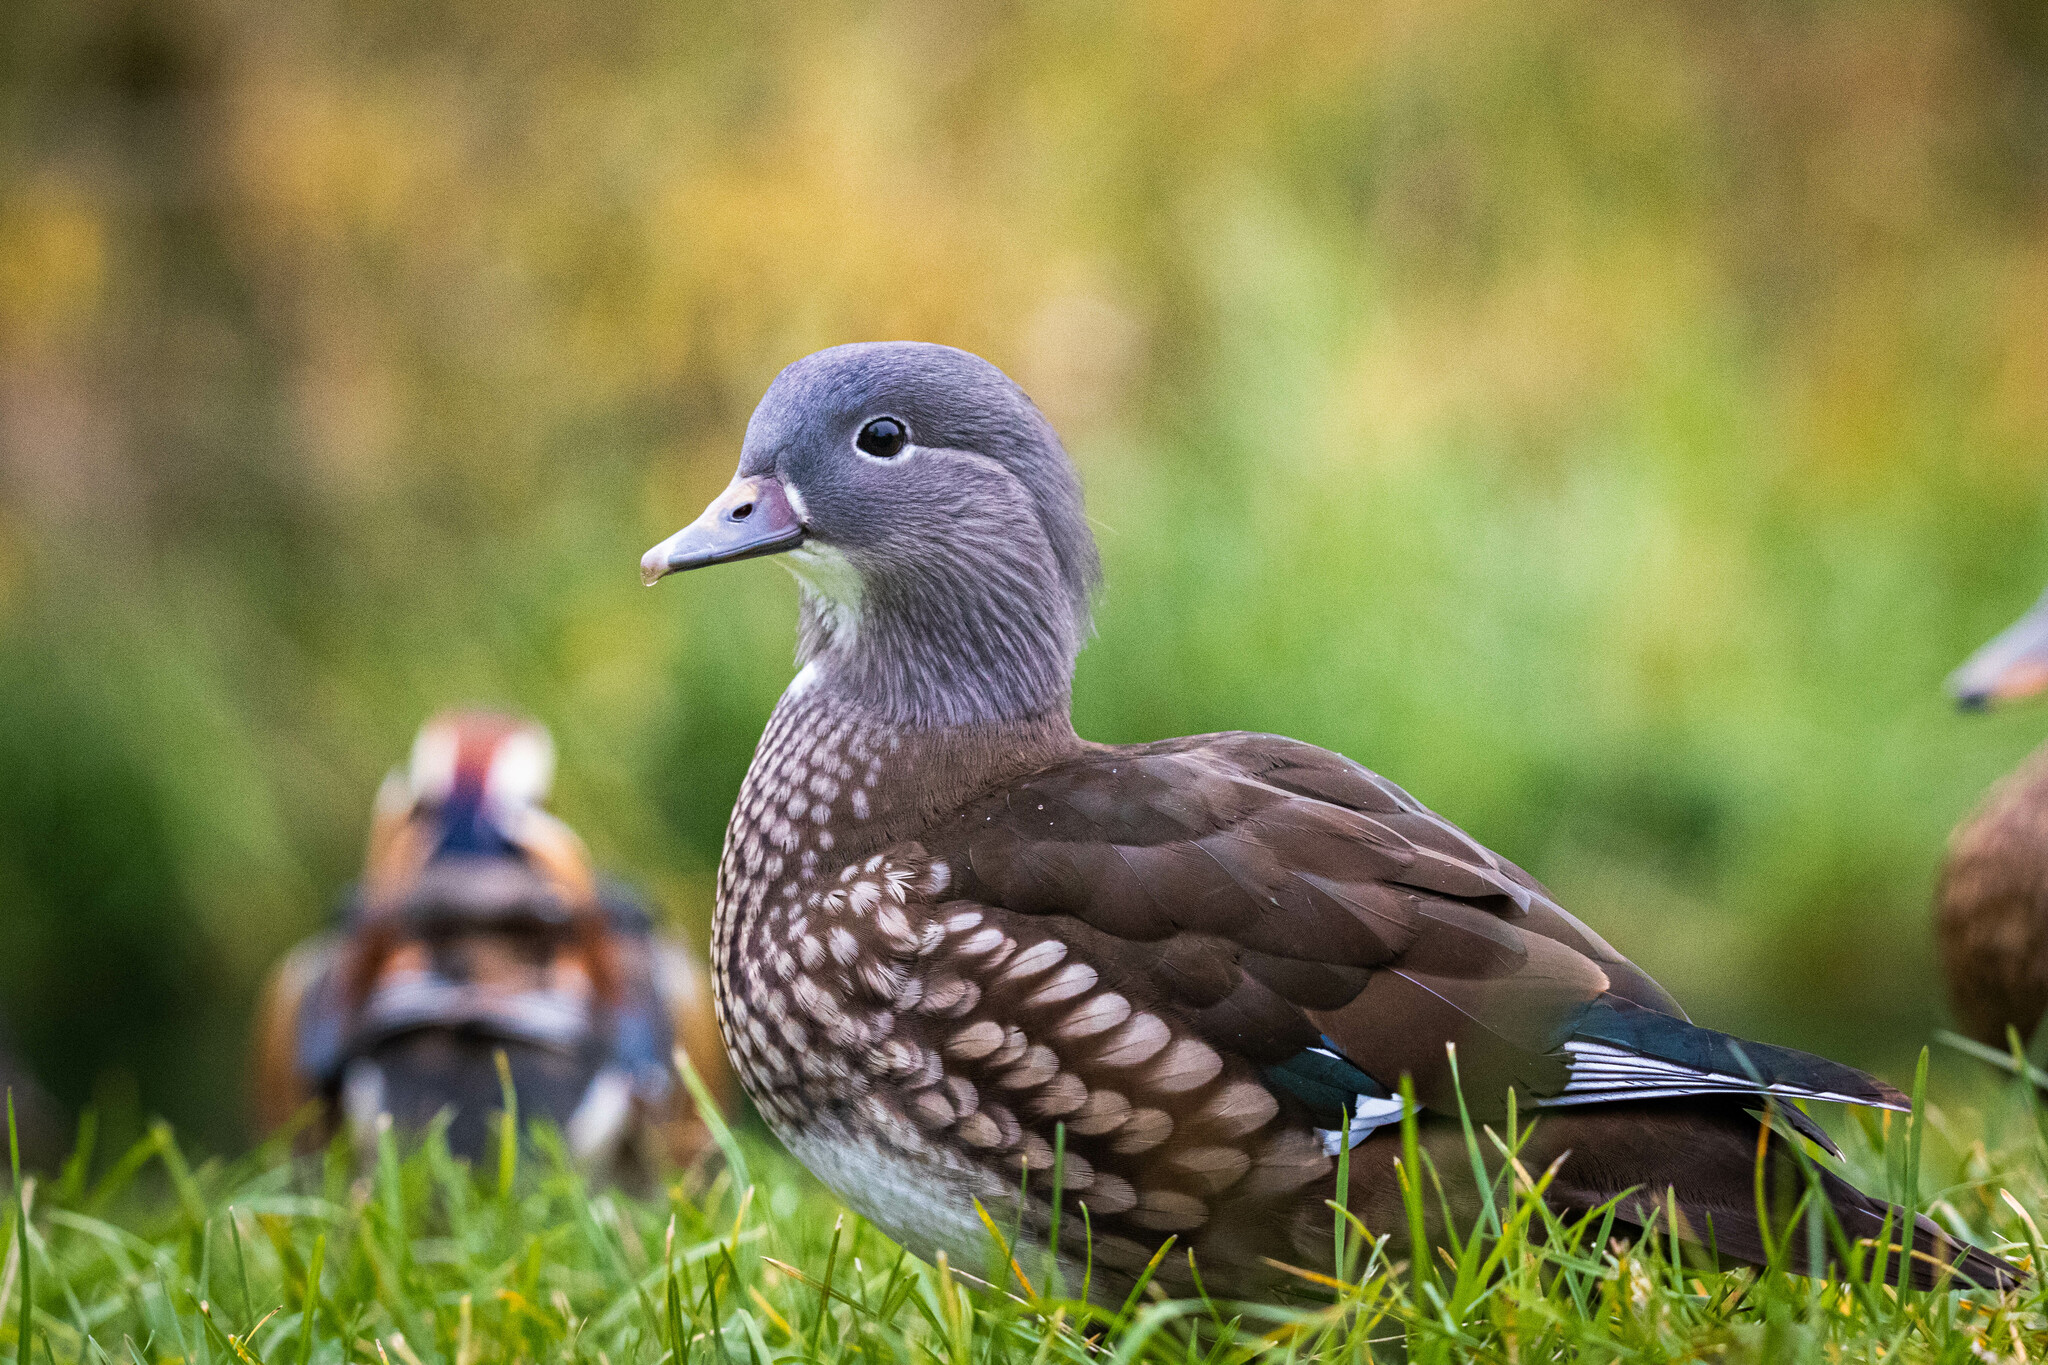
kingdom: Animalia
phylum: Chordata
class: Aves
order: Anseriformes
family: Anatidae
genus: Aix
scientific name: Aix galericulata
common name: Mandarin duck
